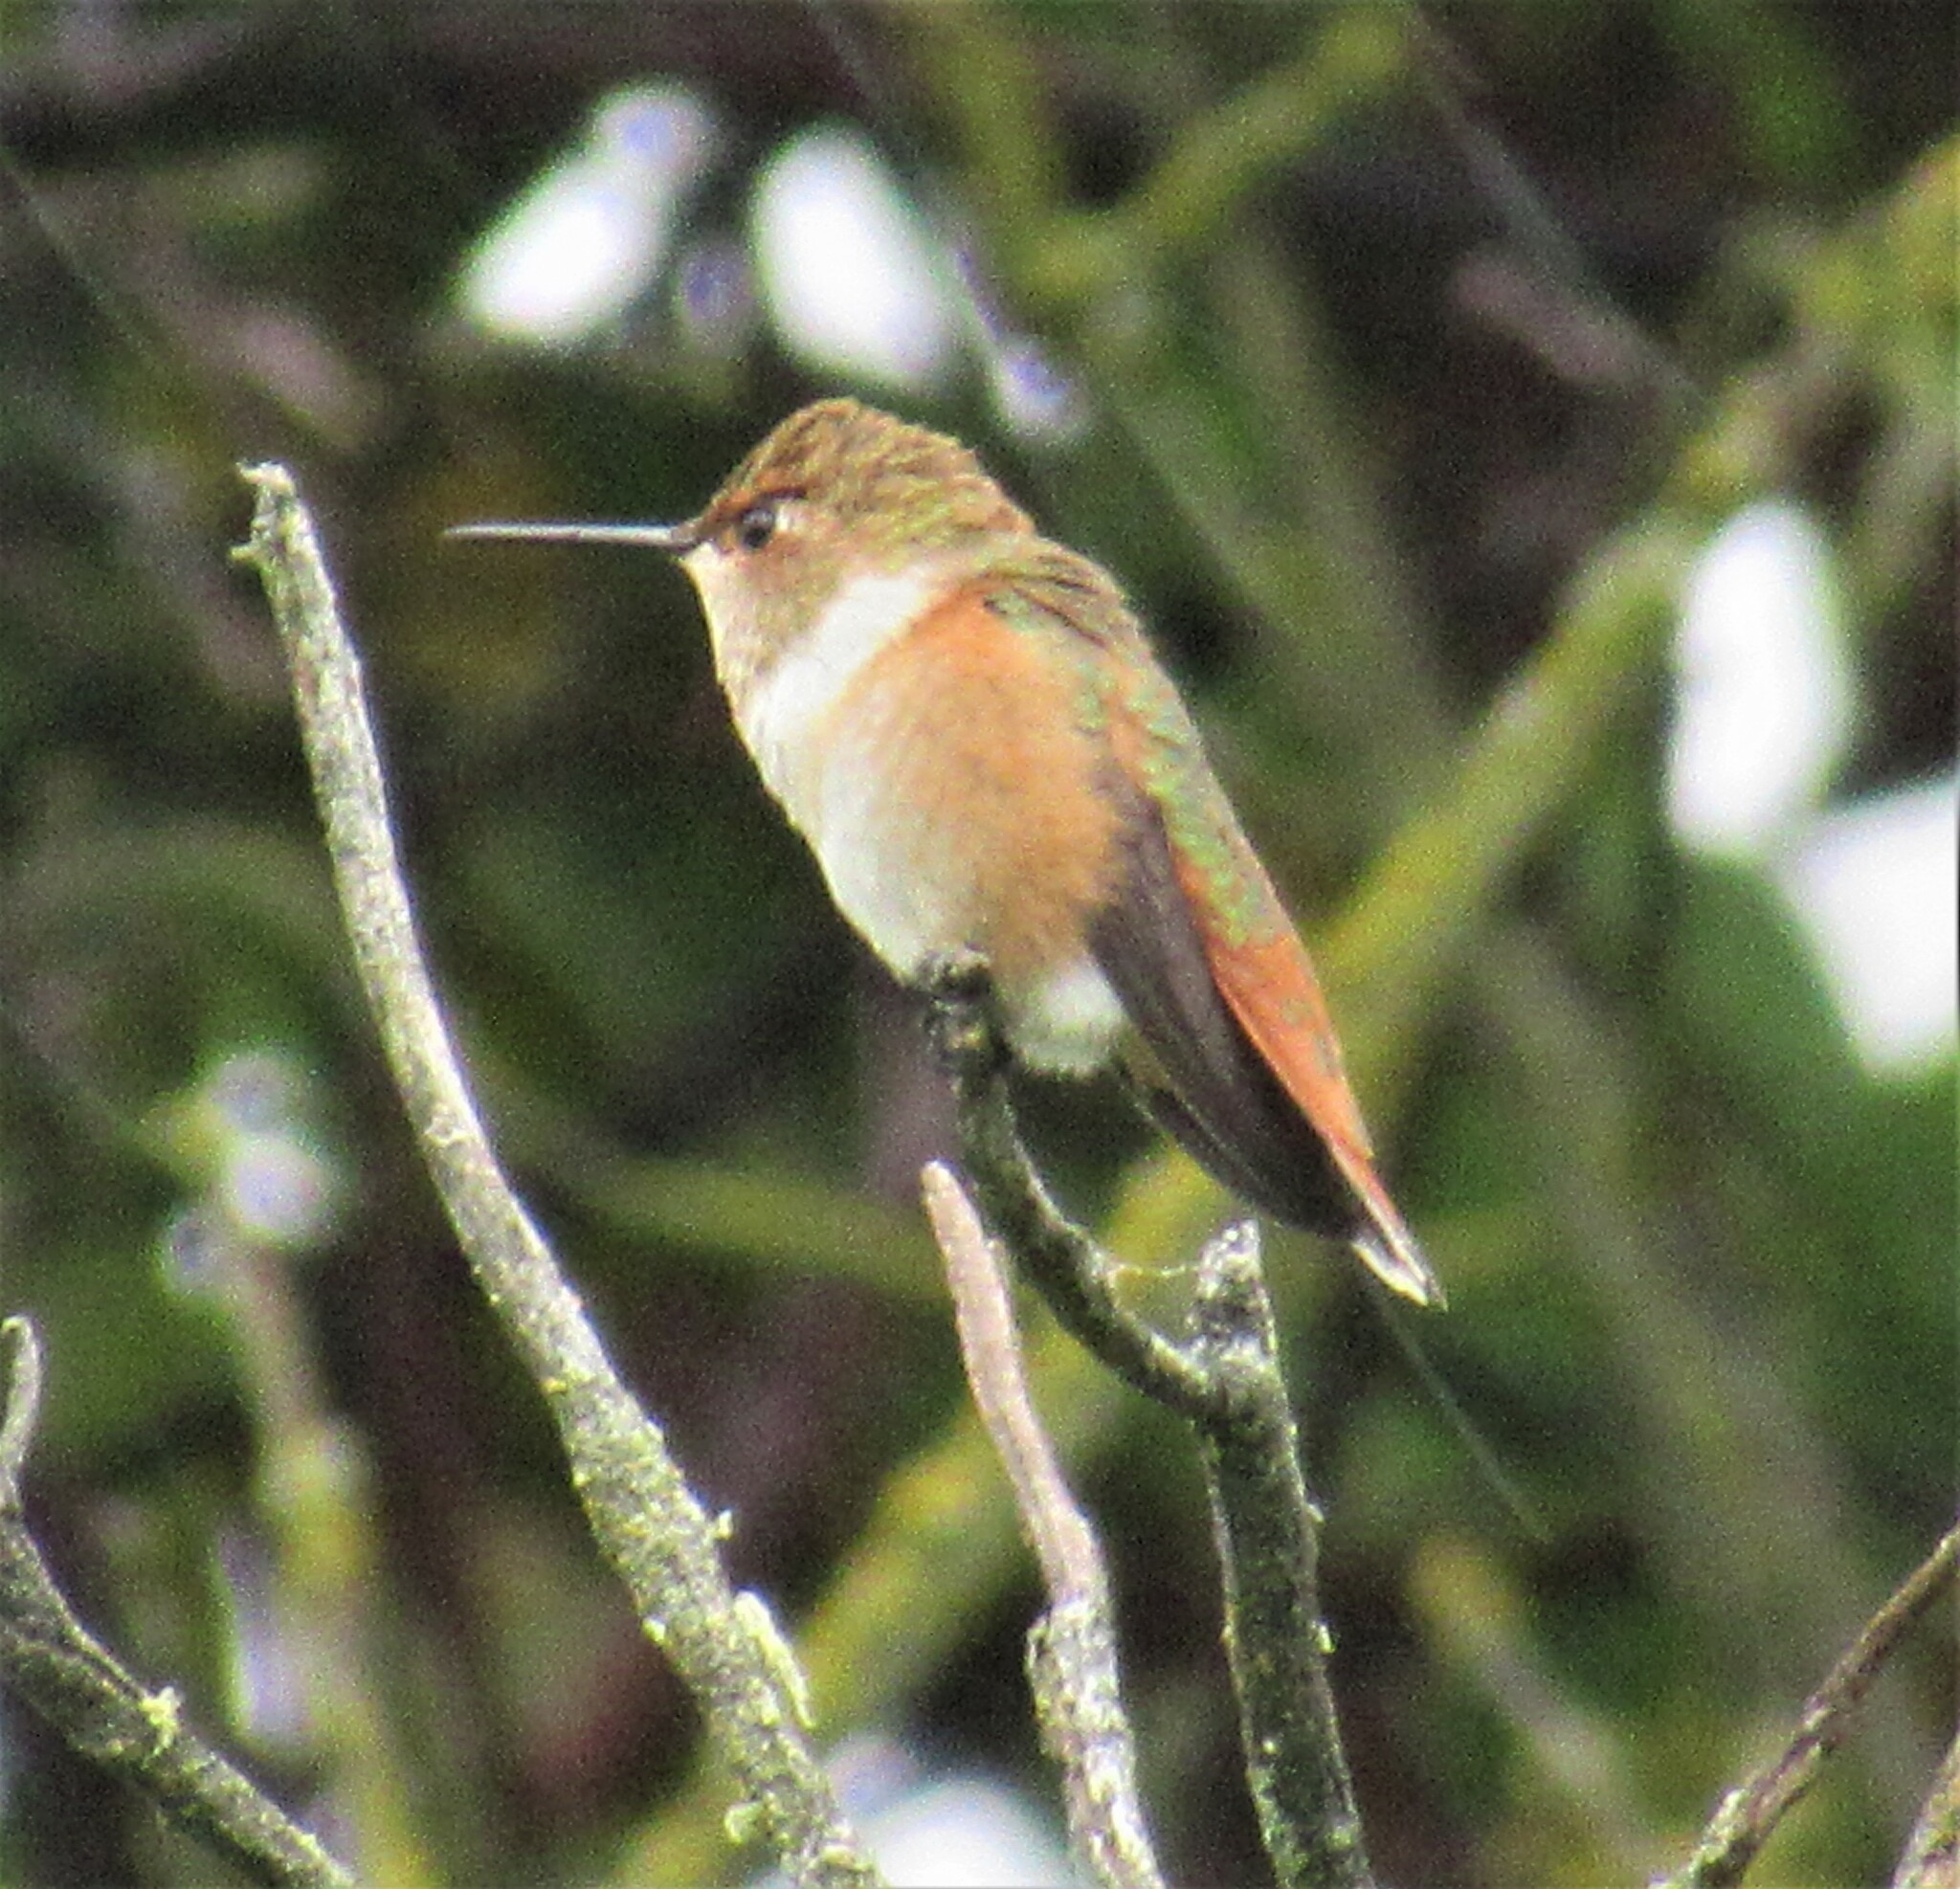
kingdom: Animalia
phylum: Chordata
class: Aves
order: Apodiformes
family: Trochilidae
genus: Selasphorus
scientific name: Selasphorus rufus
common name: Rufous hummingbird
